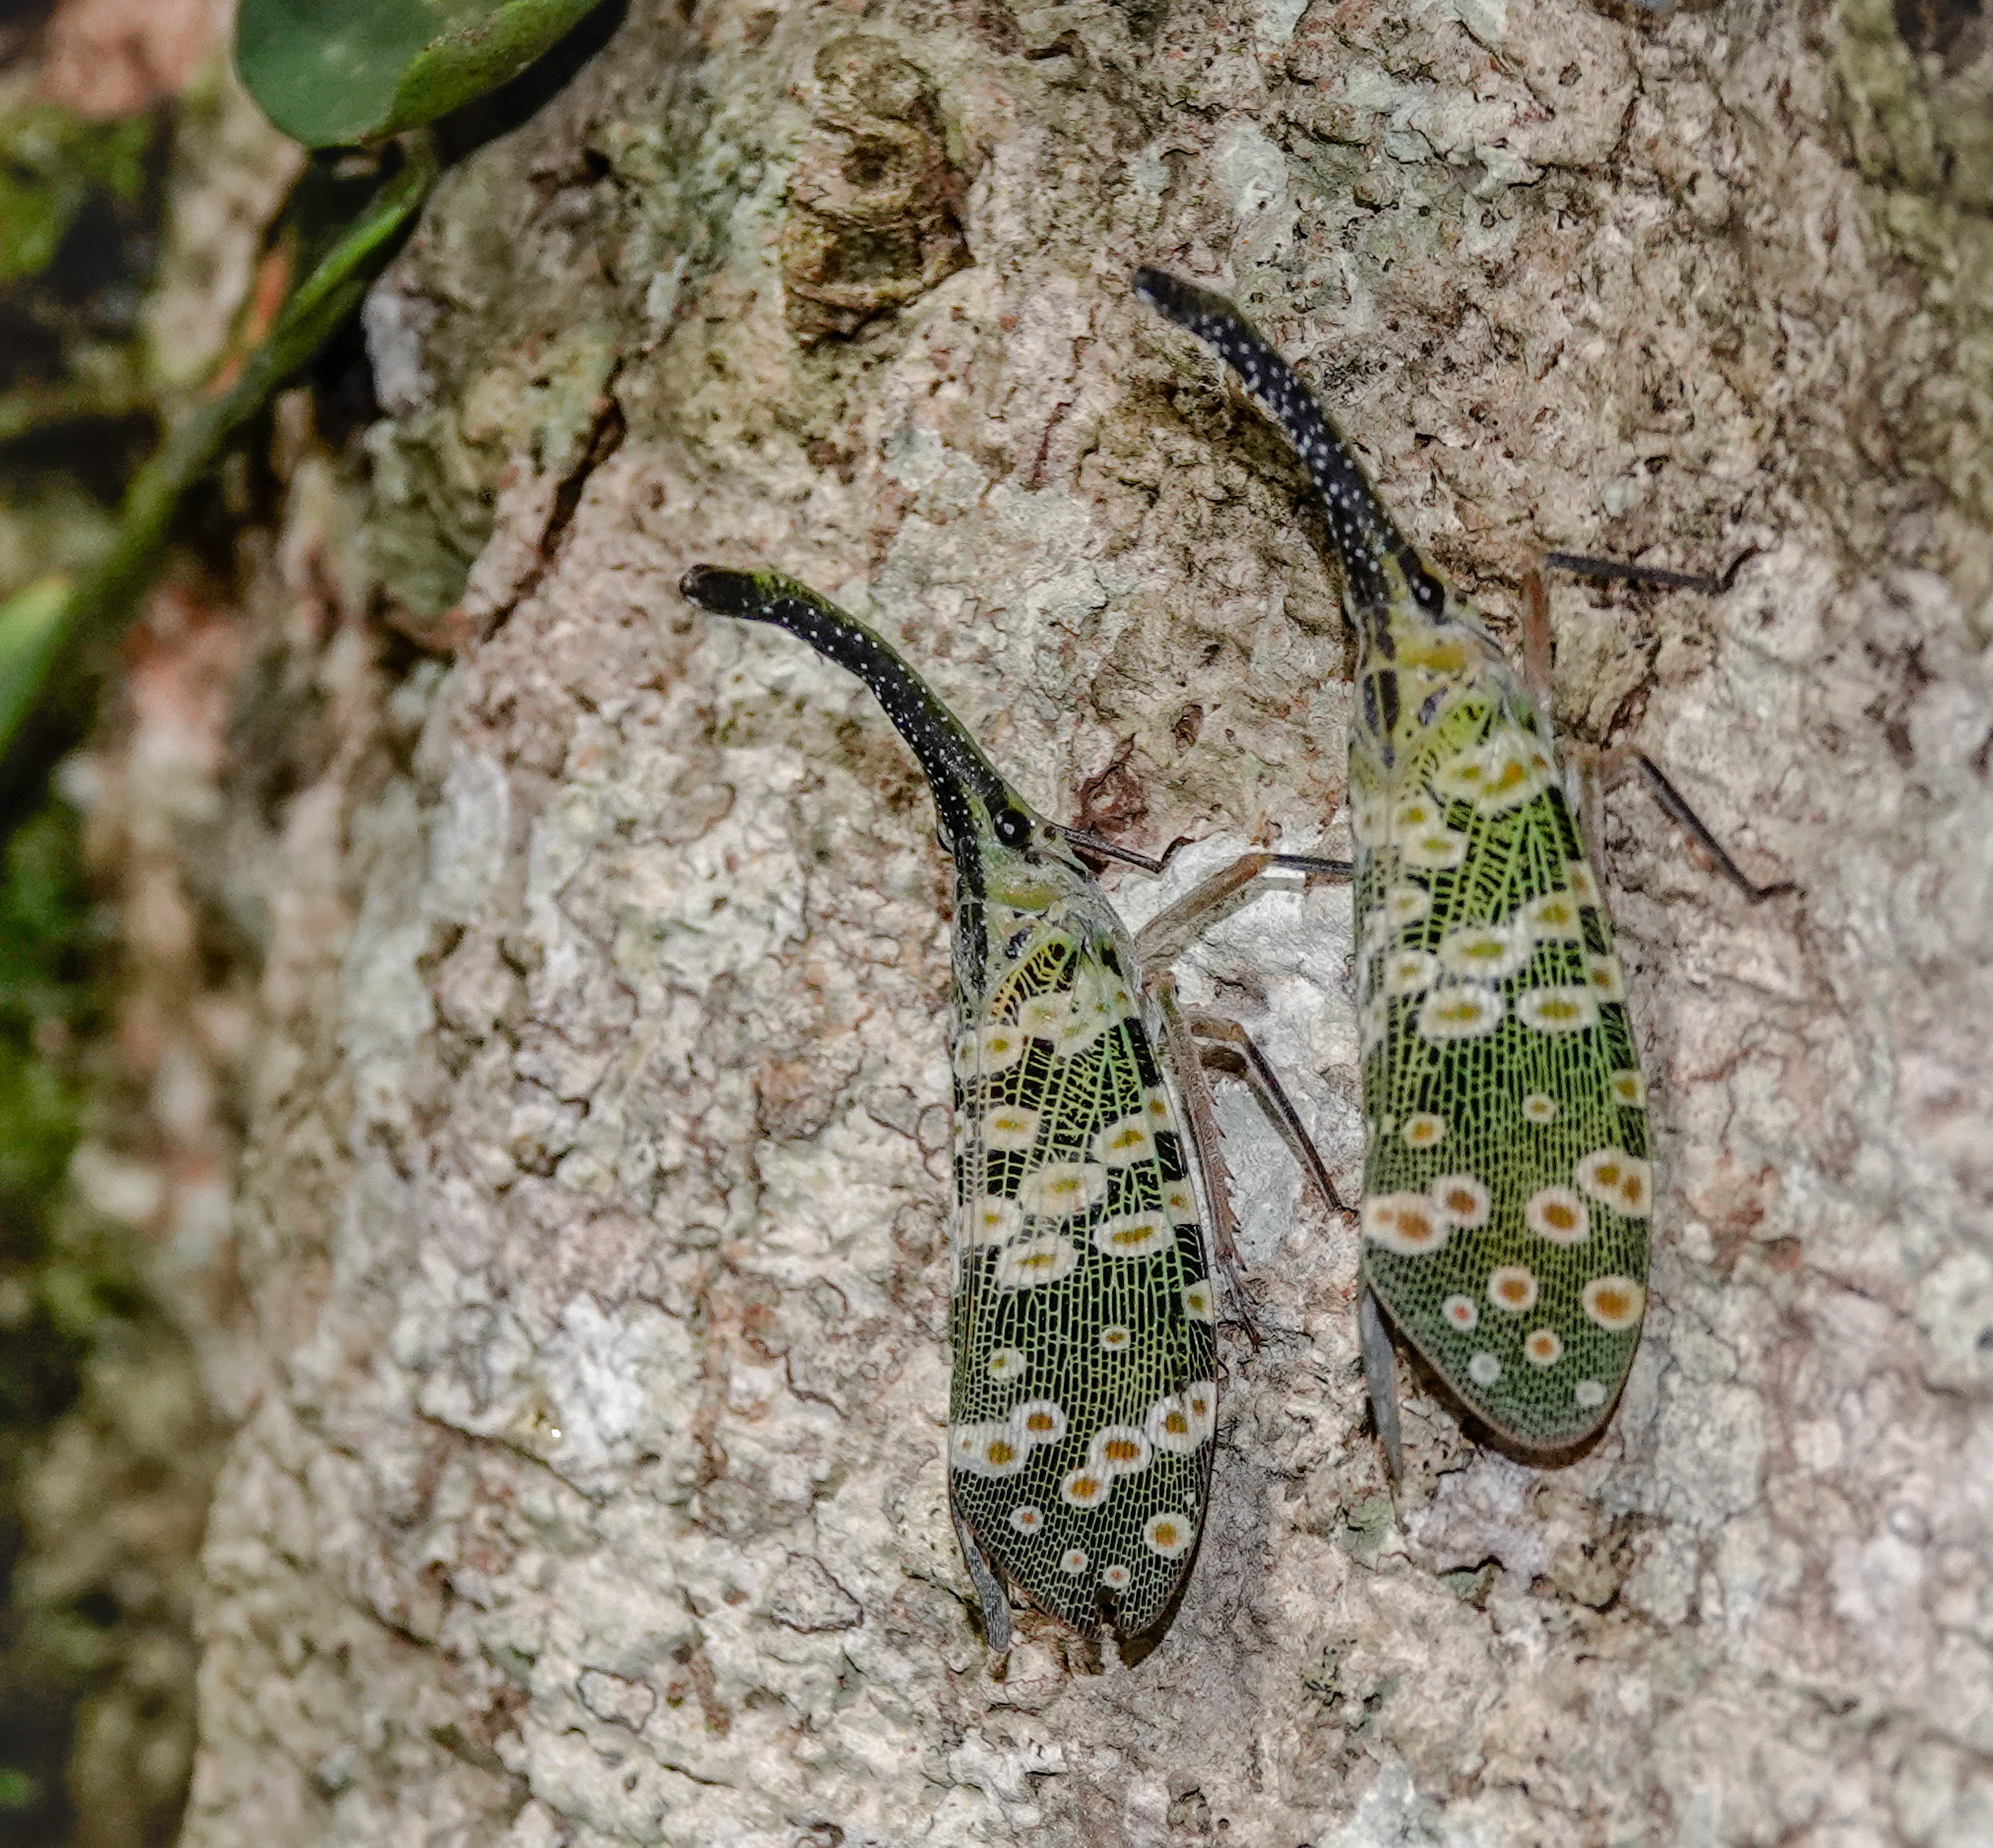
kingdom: Animalia
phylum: Arthropoda
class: Insecta
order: Hemiptera
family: Fulgoridae
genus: Pyrops
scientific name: Pyrops condorinus
